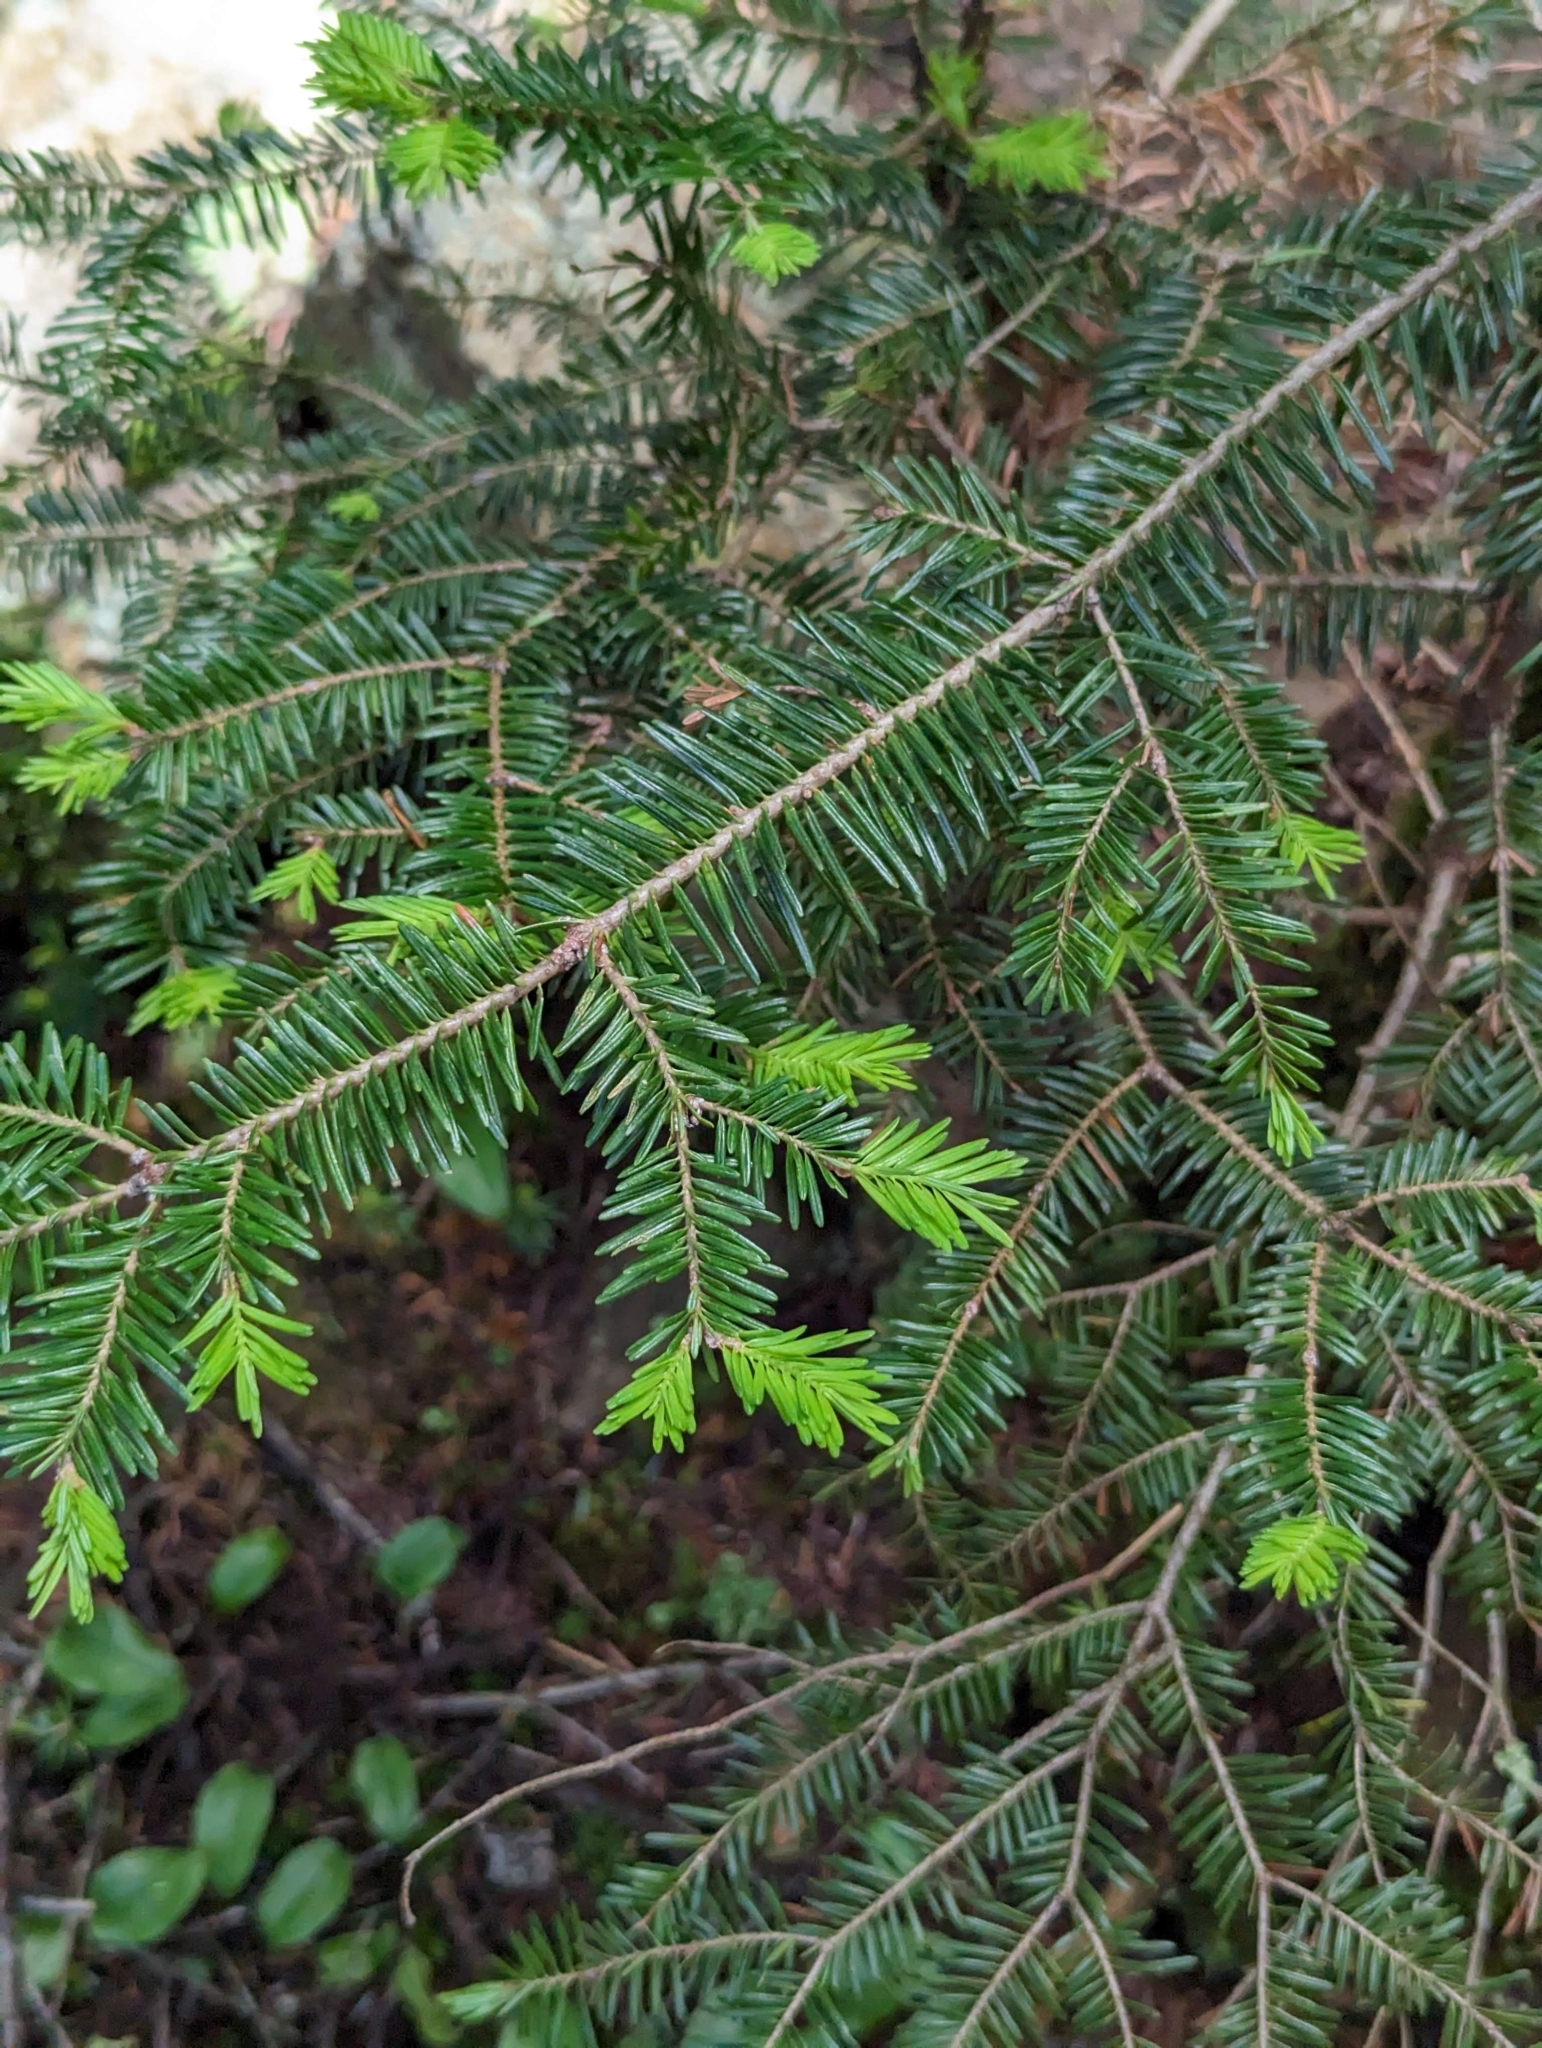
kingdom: Plantae
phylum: Tracheophyta
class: Pinopsida
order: Pinales
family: Pinaceae
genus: Abies
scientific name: Abies balsamea
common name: Balsam fir
